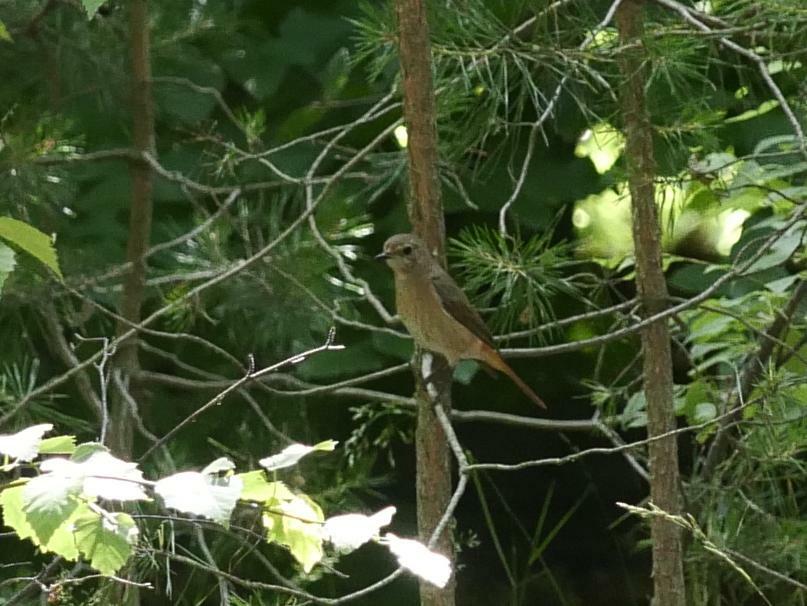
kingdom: Animalia
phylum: Chordata
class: Aves
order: Passeriformes
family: Muscicapidae
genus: Phoenicurus
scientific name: Phoenicurus phoenicurus
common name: Common redstart
